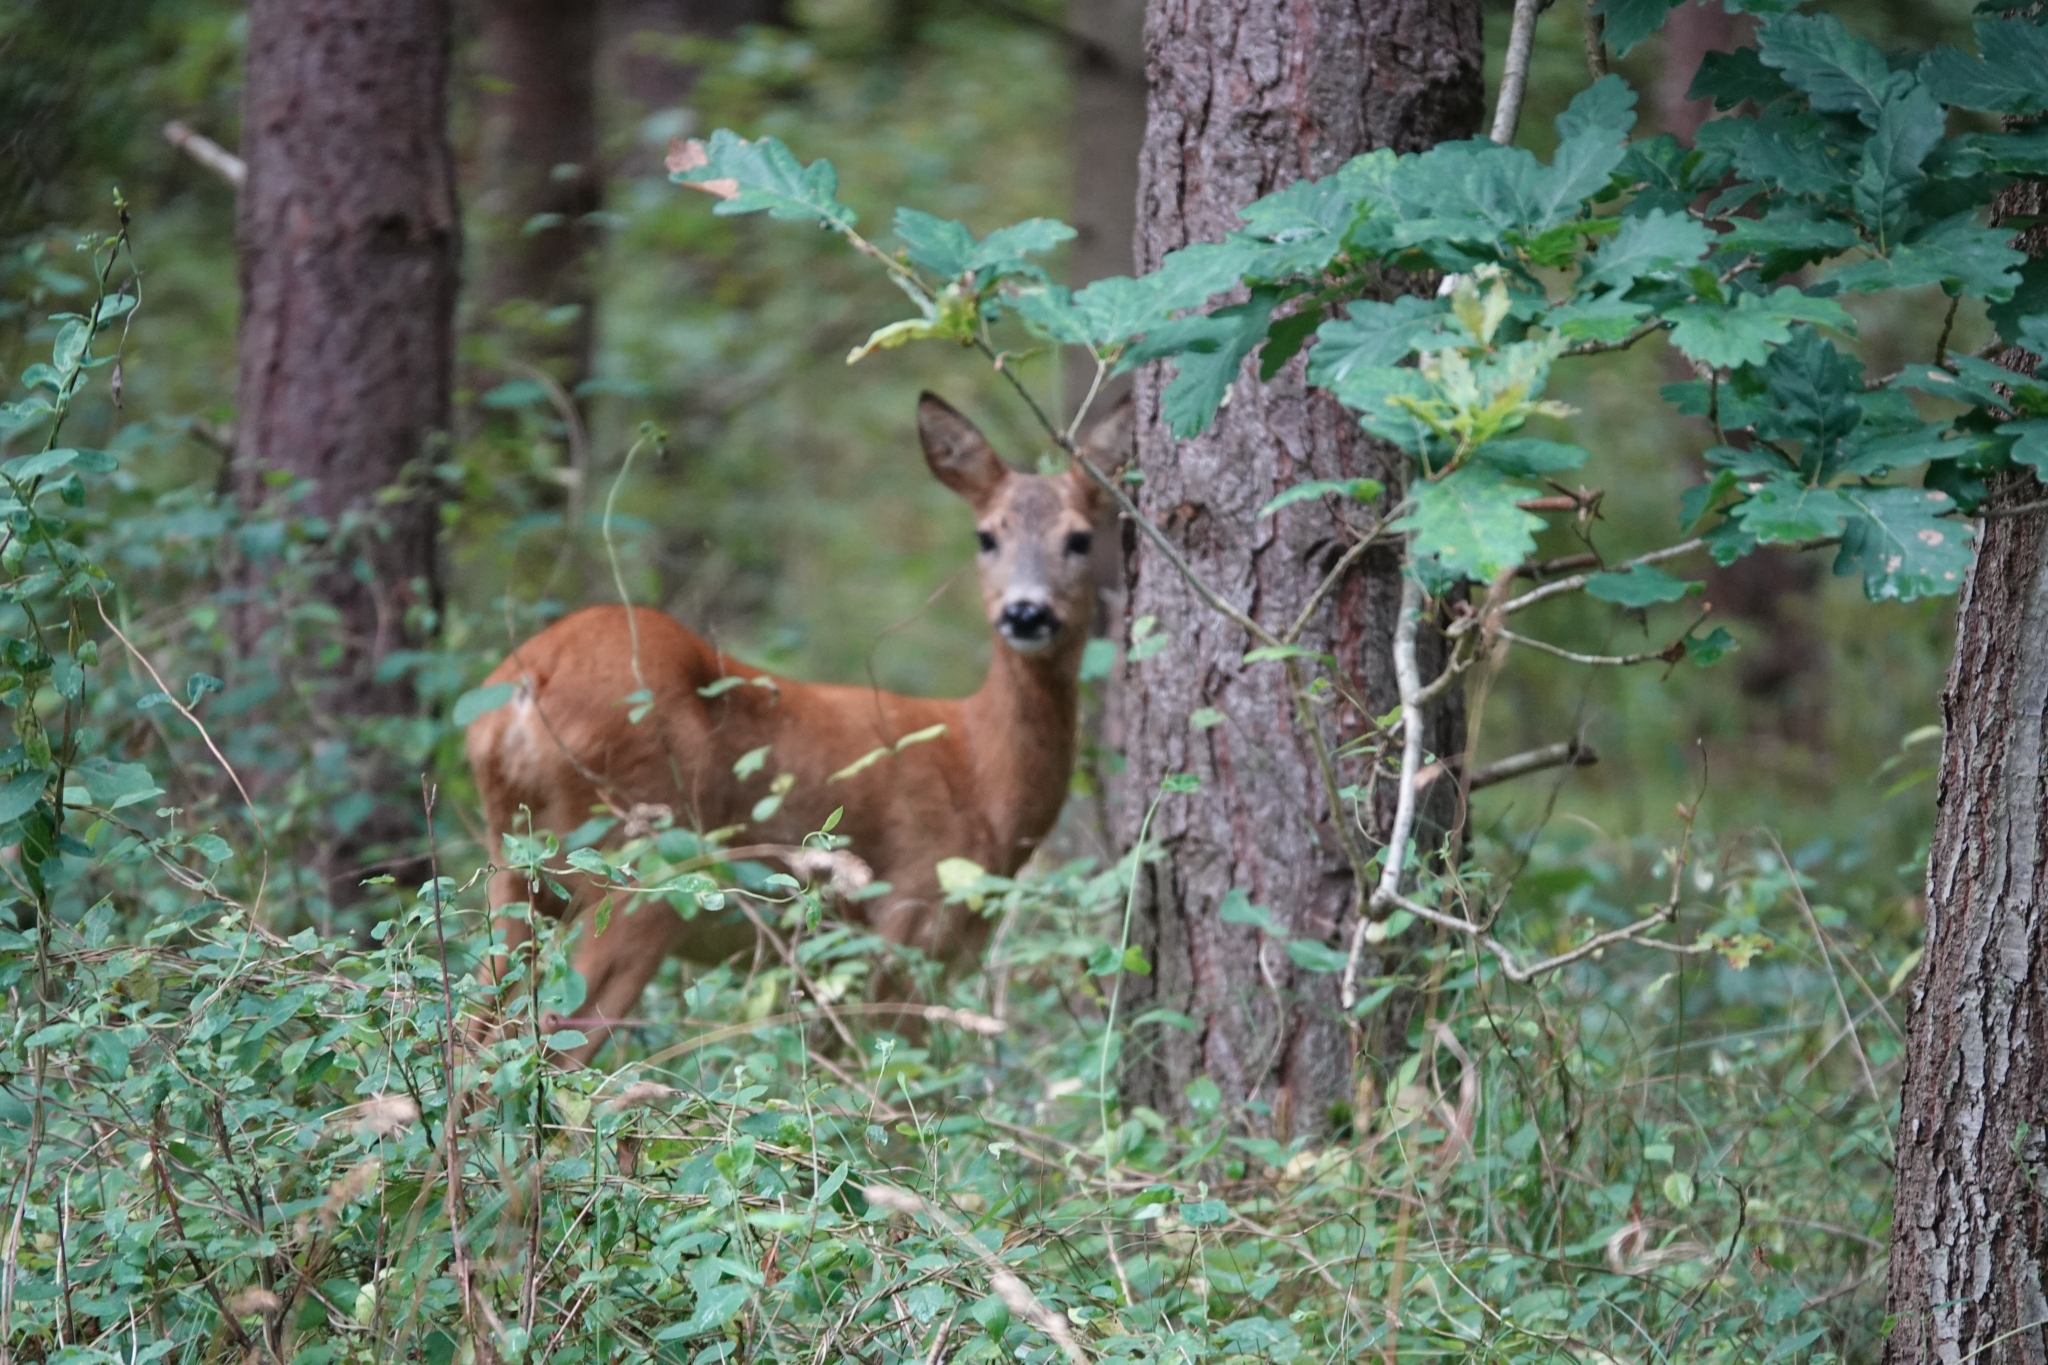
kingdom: Animalia
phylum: Chordata
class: Mammalia
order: Artiodactyla
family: Cervidae
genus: Capreolus
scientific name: Capreolus capreolus
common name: Western roe deer
